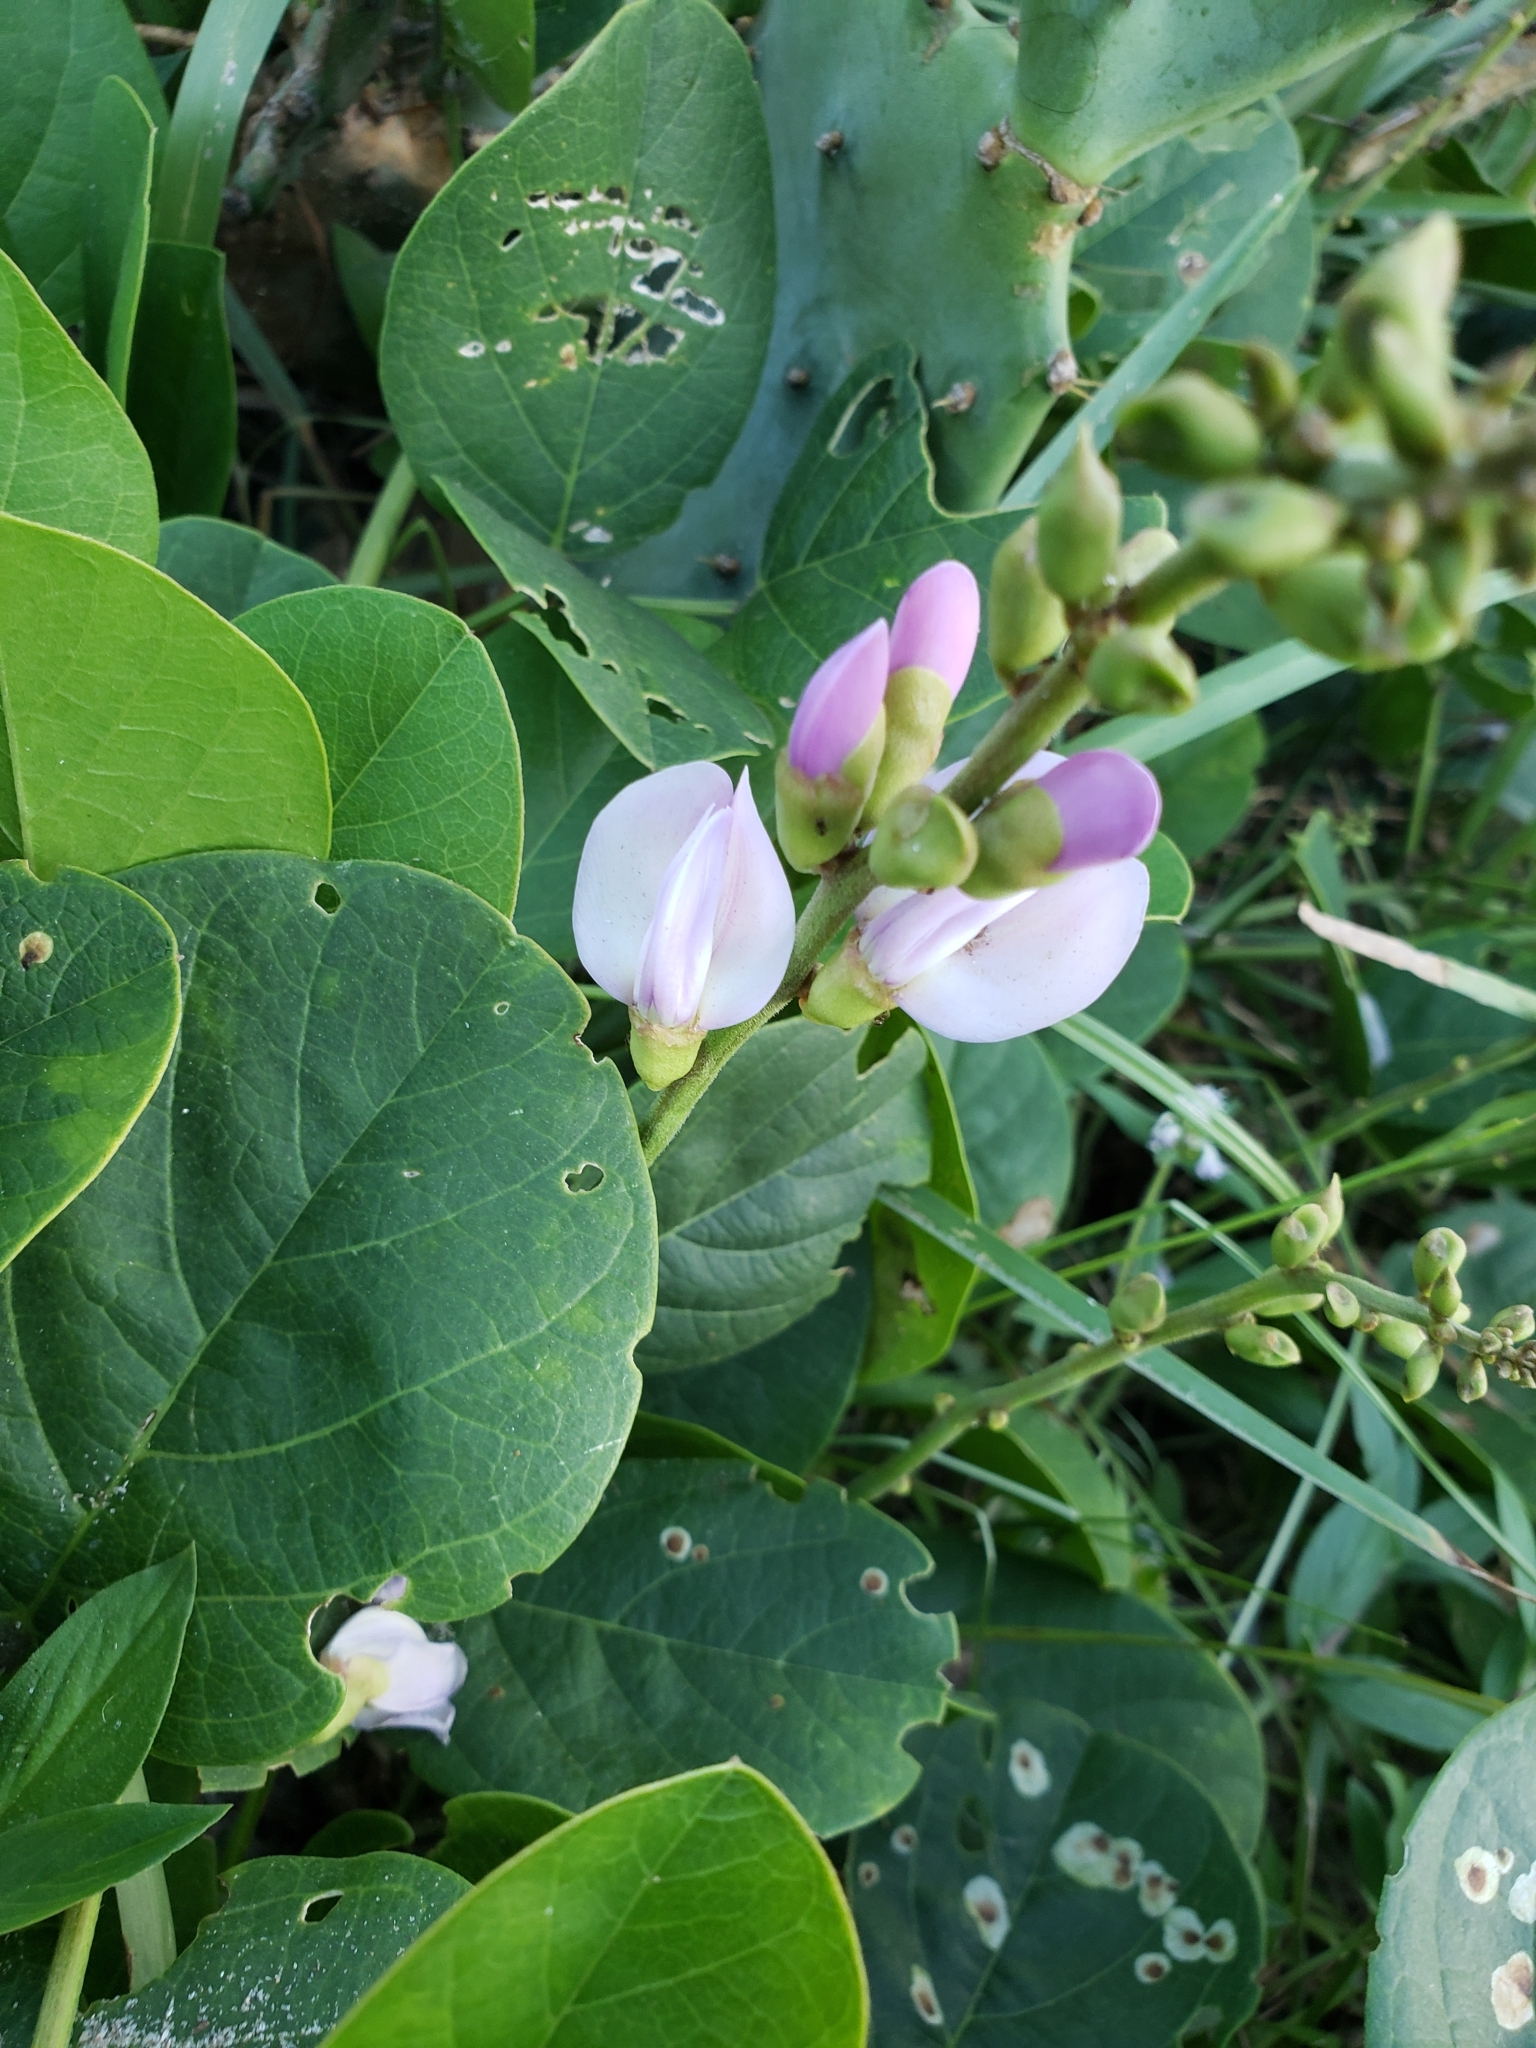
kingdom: Plantae
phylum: Tracheophyta
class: Magnoliopsida
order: Fabales
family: Fabaceae
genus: Canavalia
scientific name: Canavalia rosea
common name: Beach-bean
